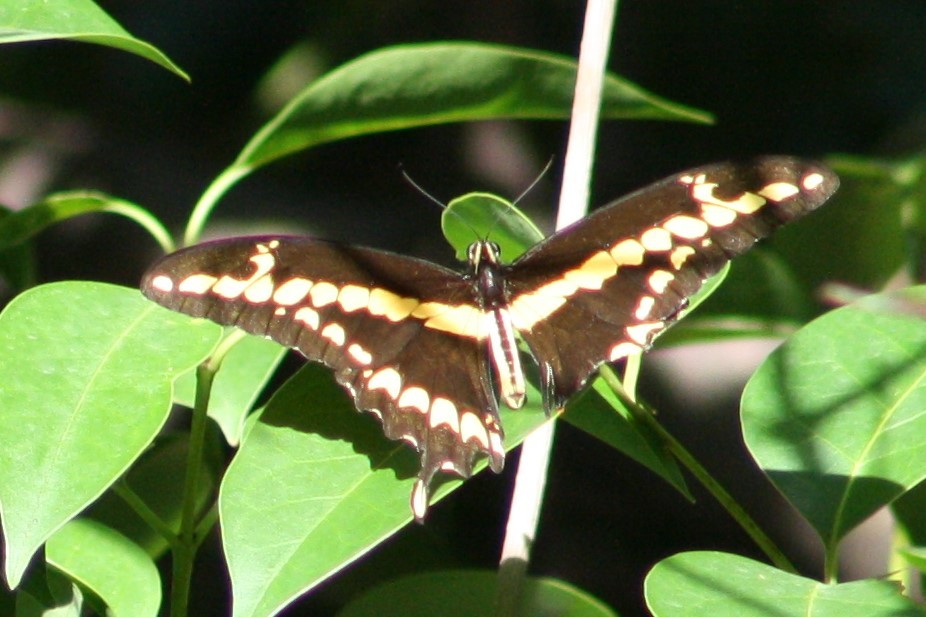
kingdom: Animalia
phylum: Arthropoda
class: Insecta
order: Lepidoptera
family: Papilionidae
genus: Papilio
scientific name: Papilio rumiko
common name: Western giant swallowtail
